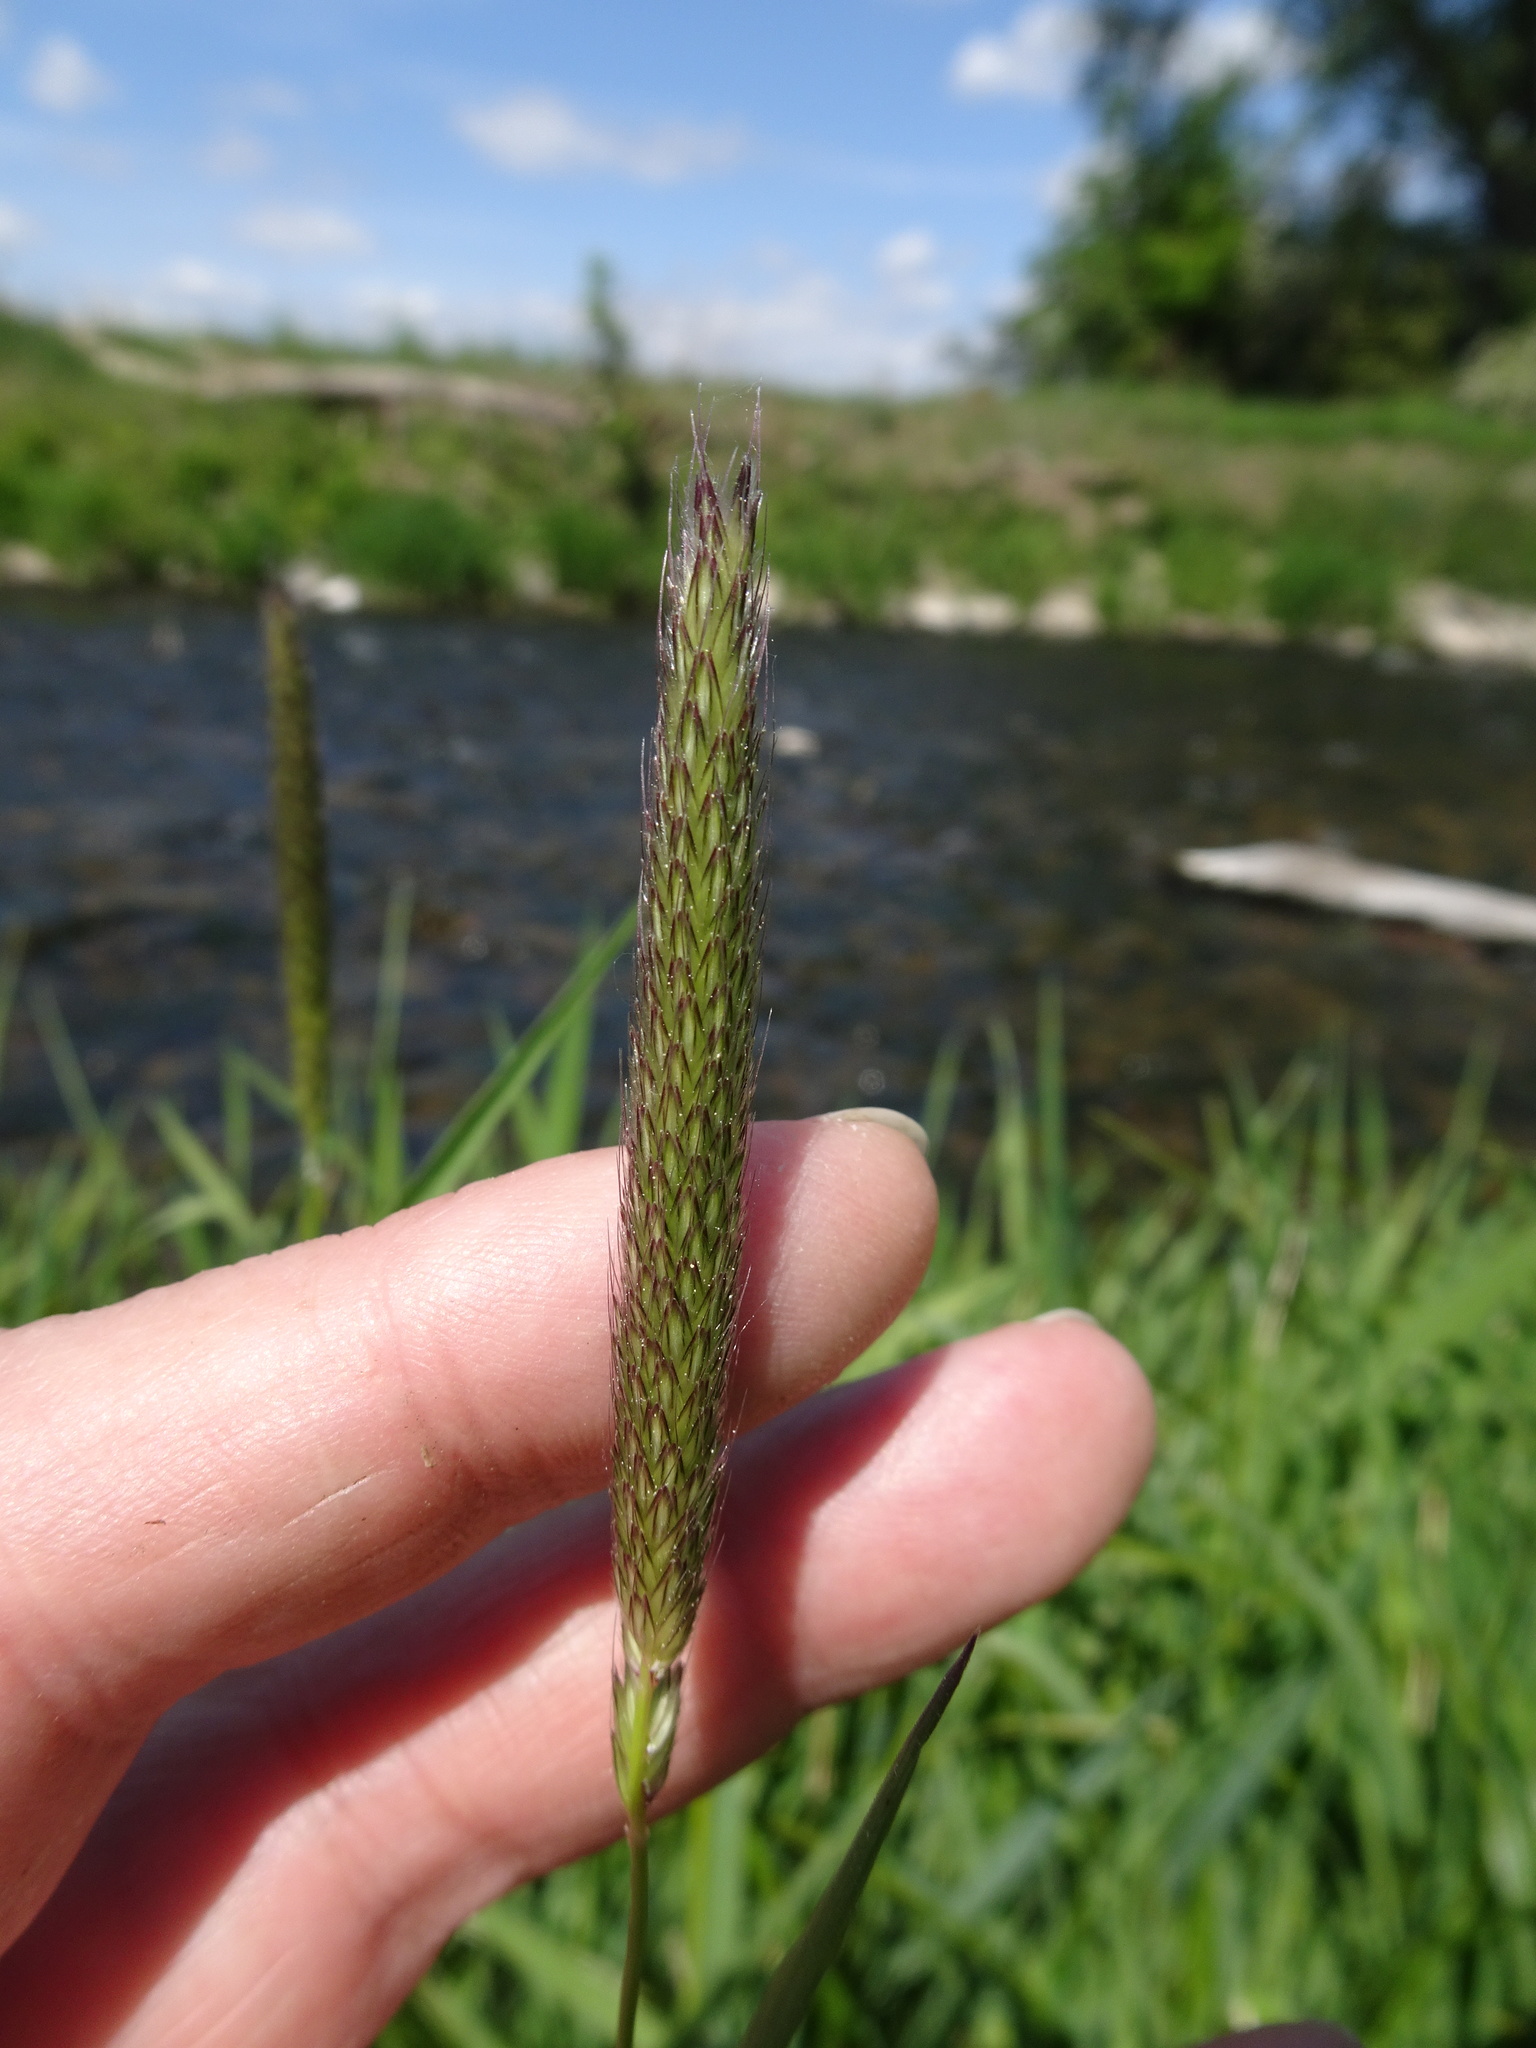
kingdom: Plantae
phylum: Tracheophyta
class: Liliopsida
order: Poales
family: Poaceae
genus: Alopecurus
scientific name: Alopecurus pratensis
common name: Meadow foxtail
